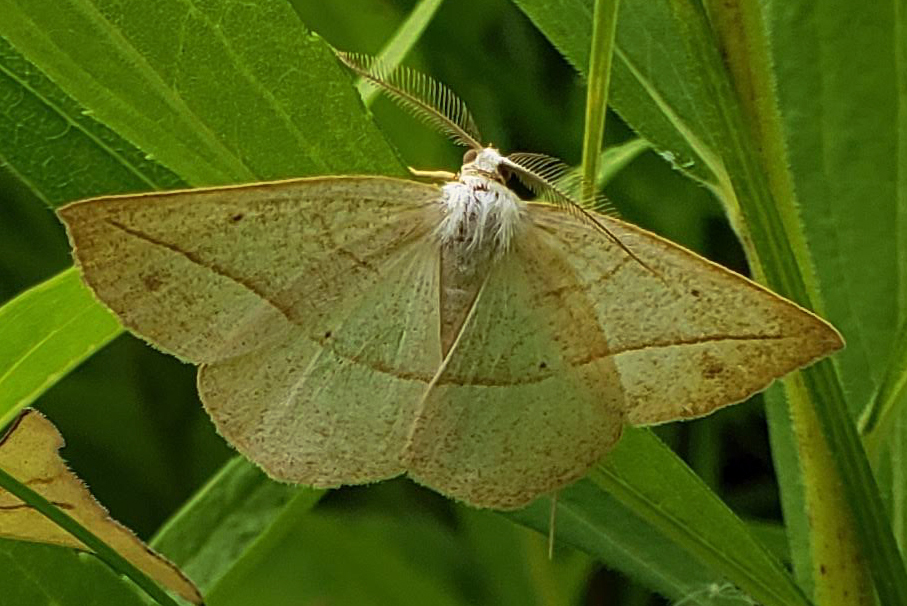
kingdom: Animalia
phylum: Arthropoda
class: Insecta
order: Lepidoptera
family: Geometridae
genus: Eusarca
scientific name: Eusarca confusaria
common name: Confused eusarca
